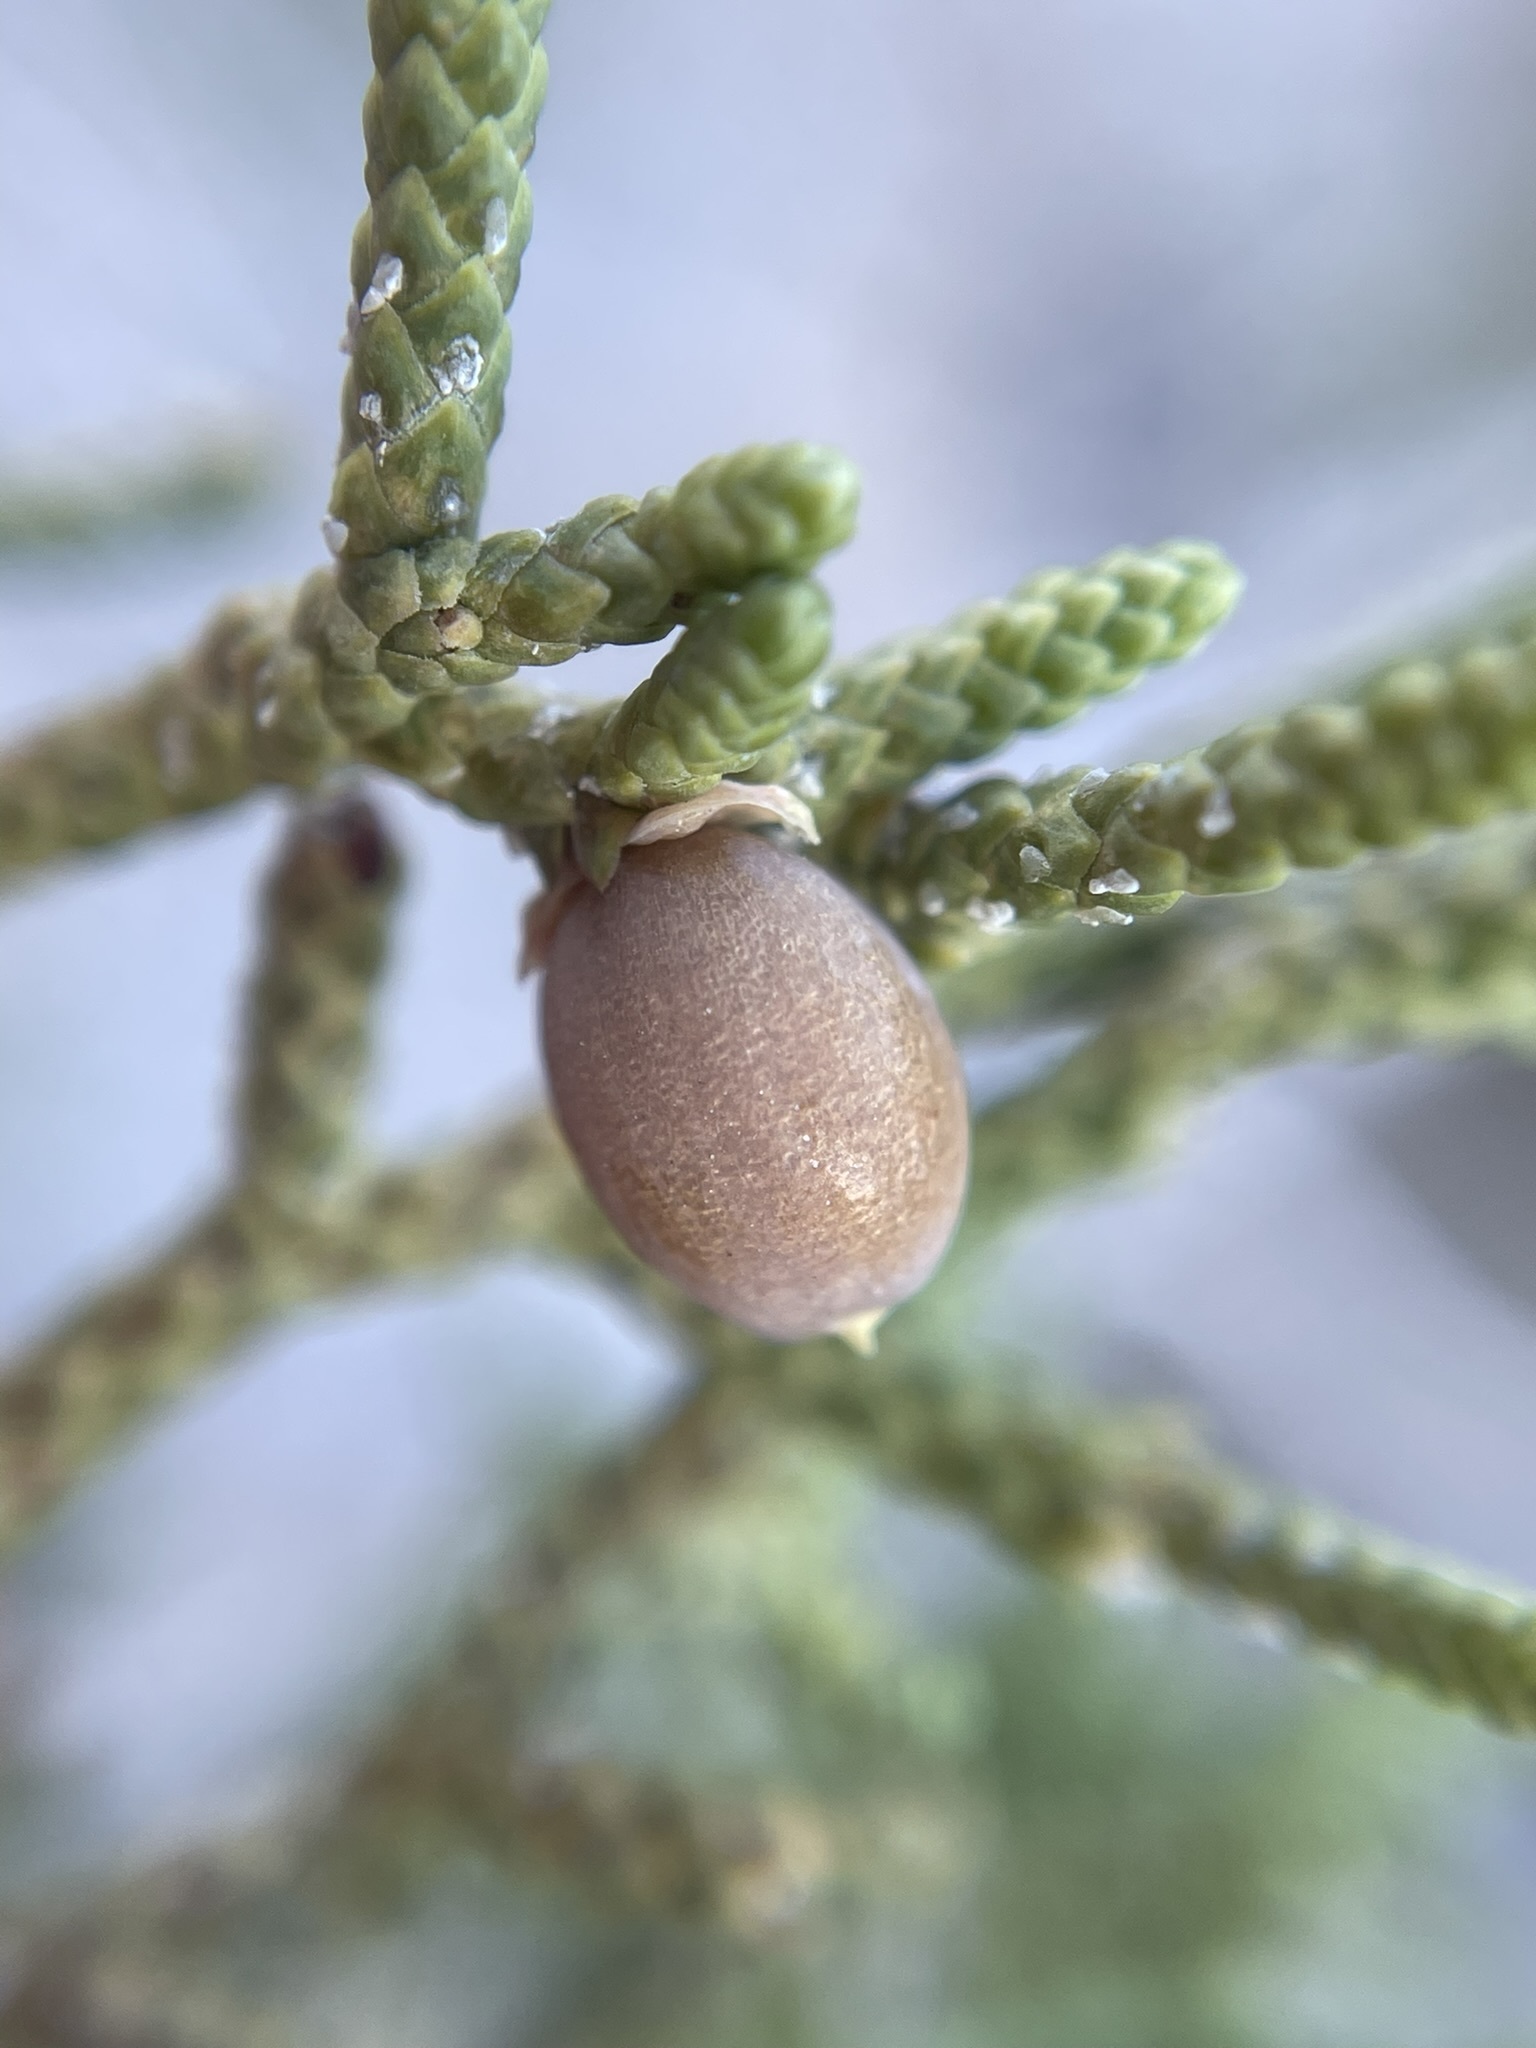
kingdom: Plantae
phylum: Tracheophyta
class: Pinopsida
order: Pinales
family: Cupressaceae
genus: Juniperus
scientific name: Juniperus californica
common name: California juniper
